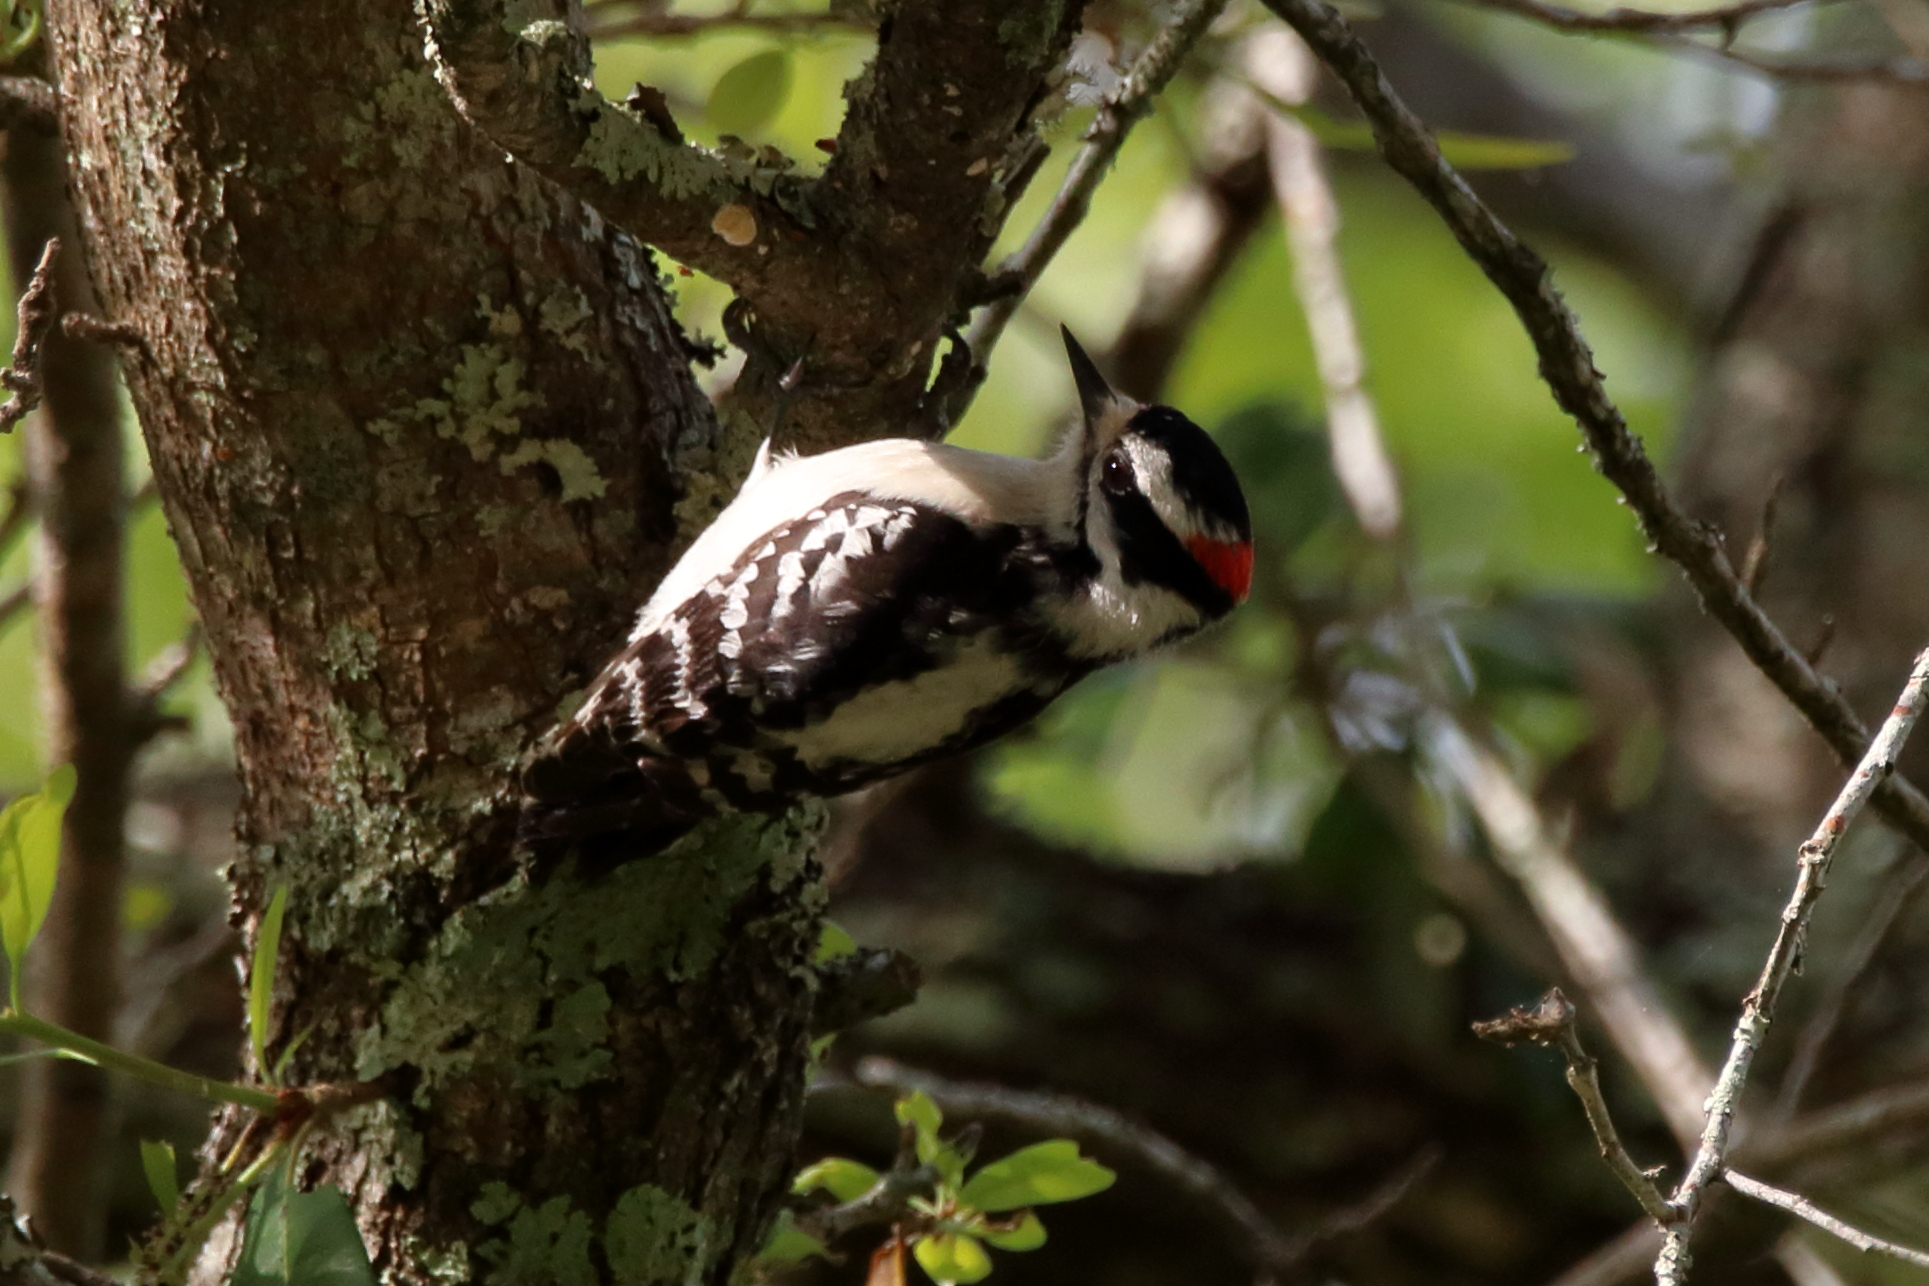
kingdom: Animalia
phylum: Chordata
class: Aves
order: Piciformes
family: Picidae
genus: Dryobates
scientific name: Dryobates pubescens
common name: Downy woodpecker
